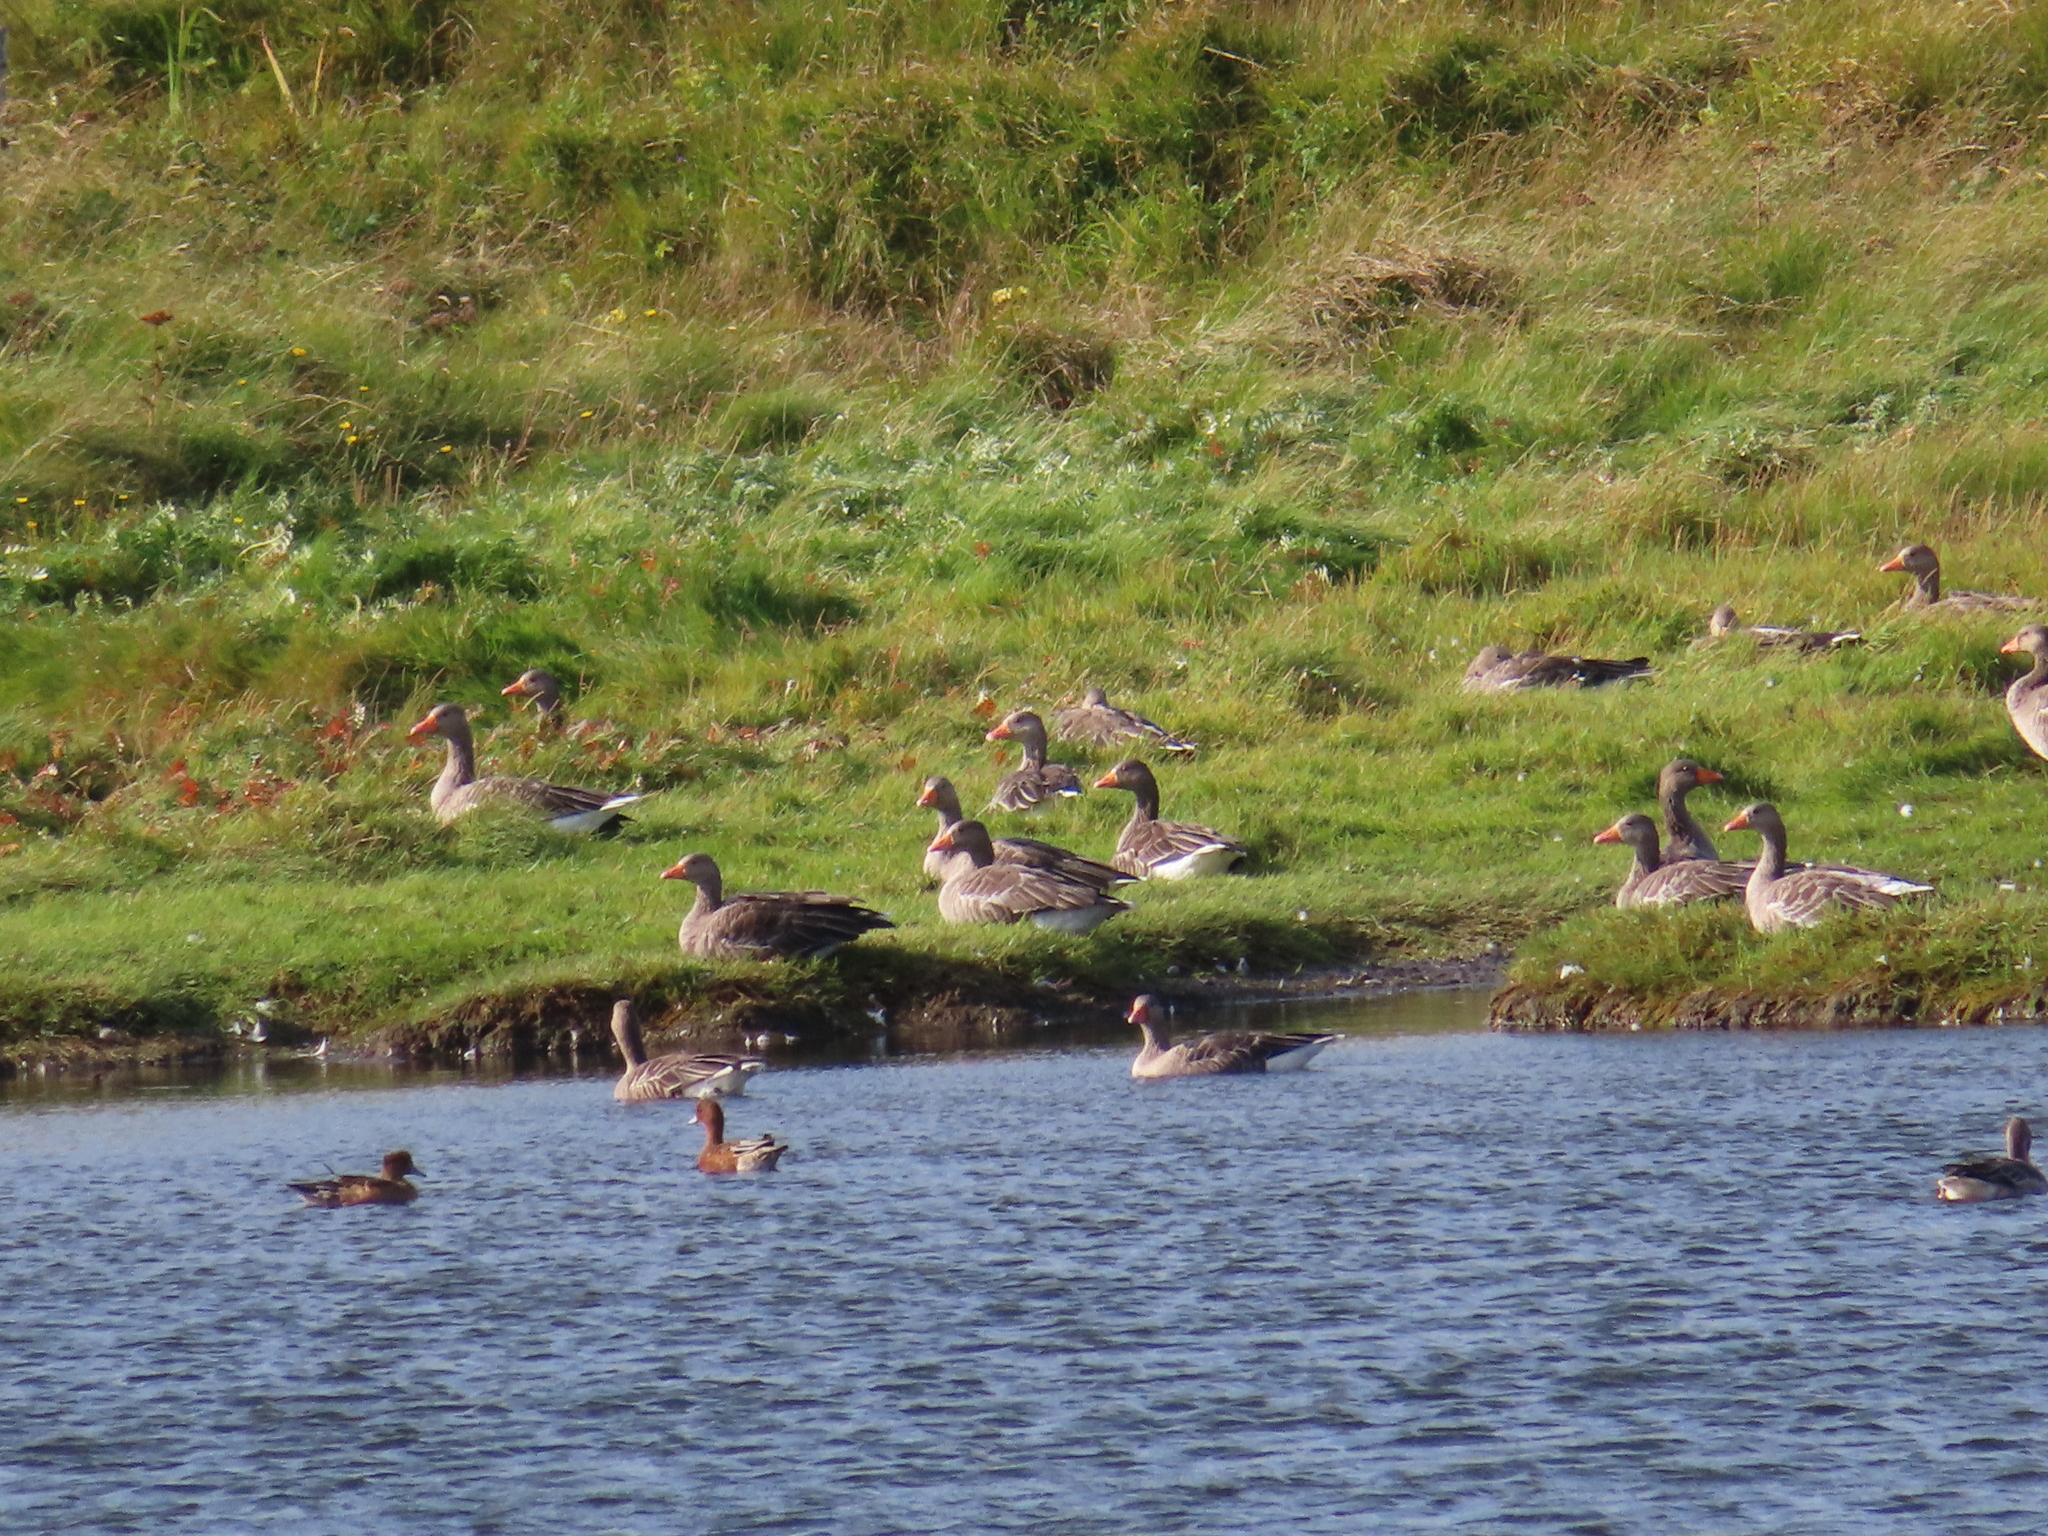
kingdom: Animalia
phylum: Chordata
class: Aves
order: Anseriformes
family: Anatidae
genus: Anser
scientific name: Anser anser
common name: Greylag goose
